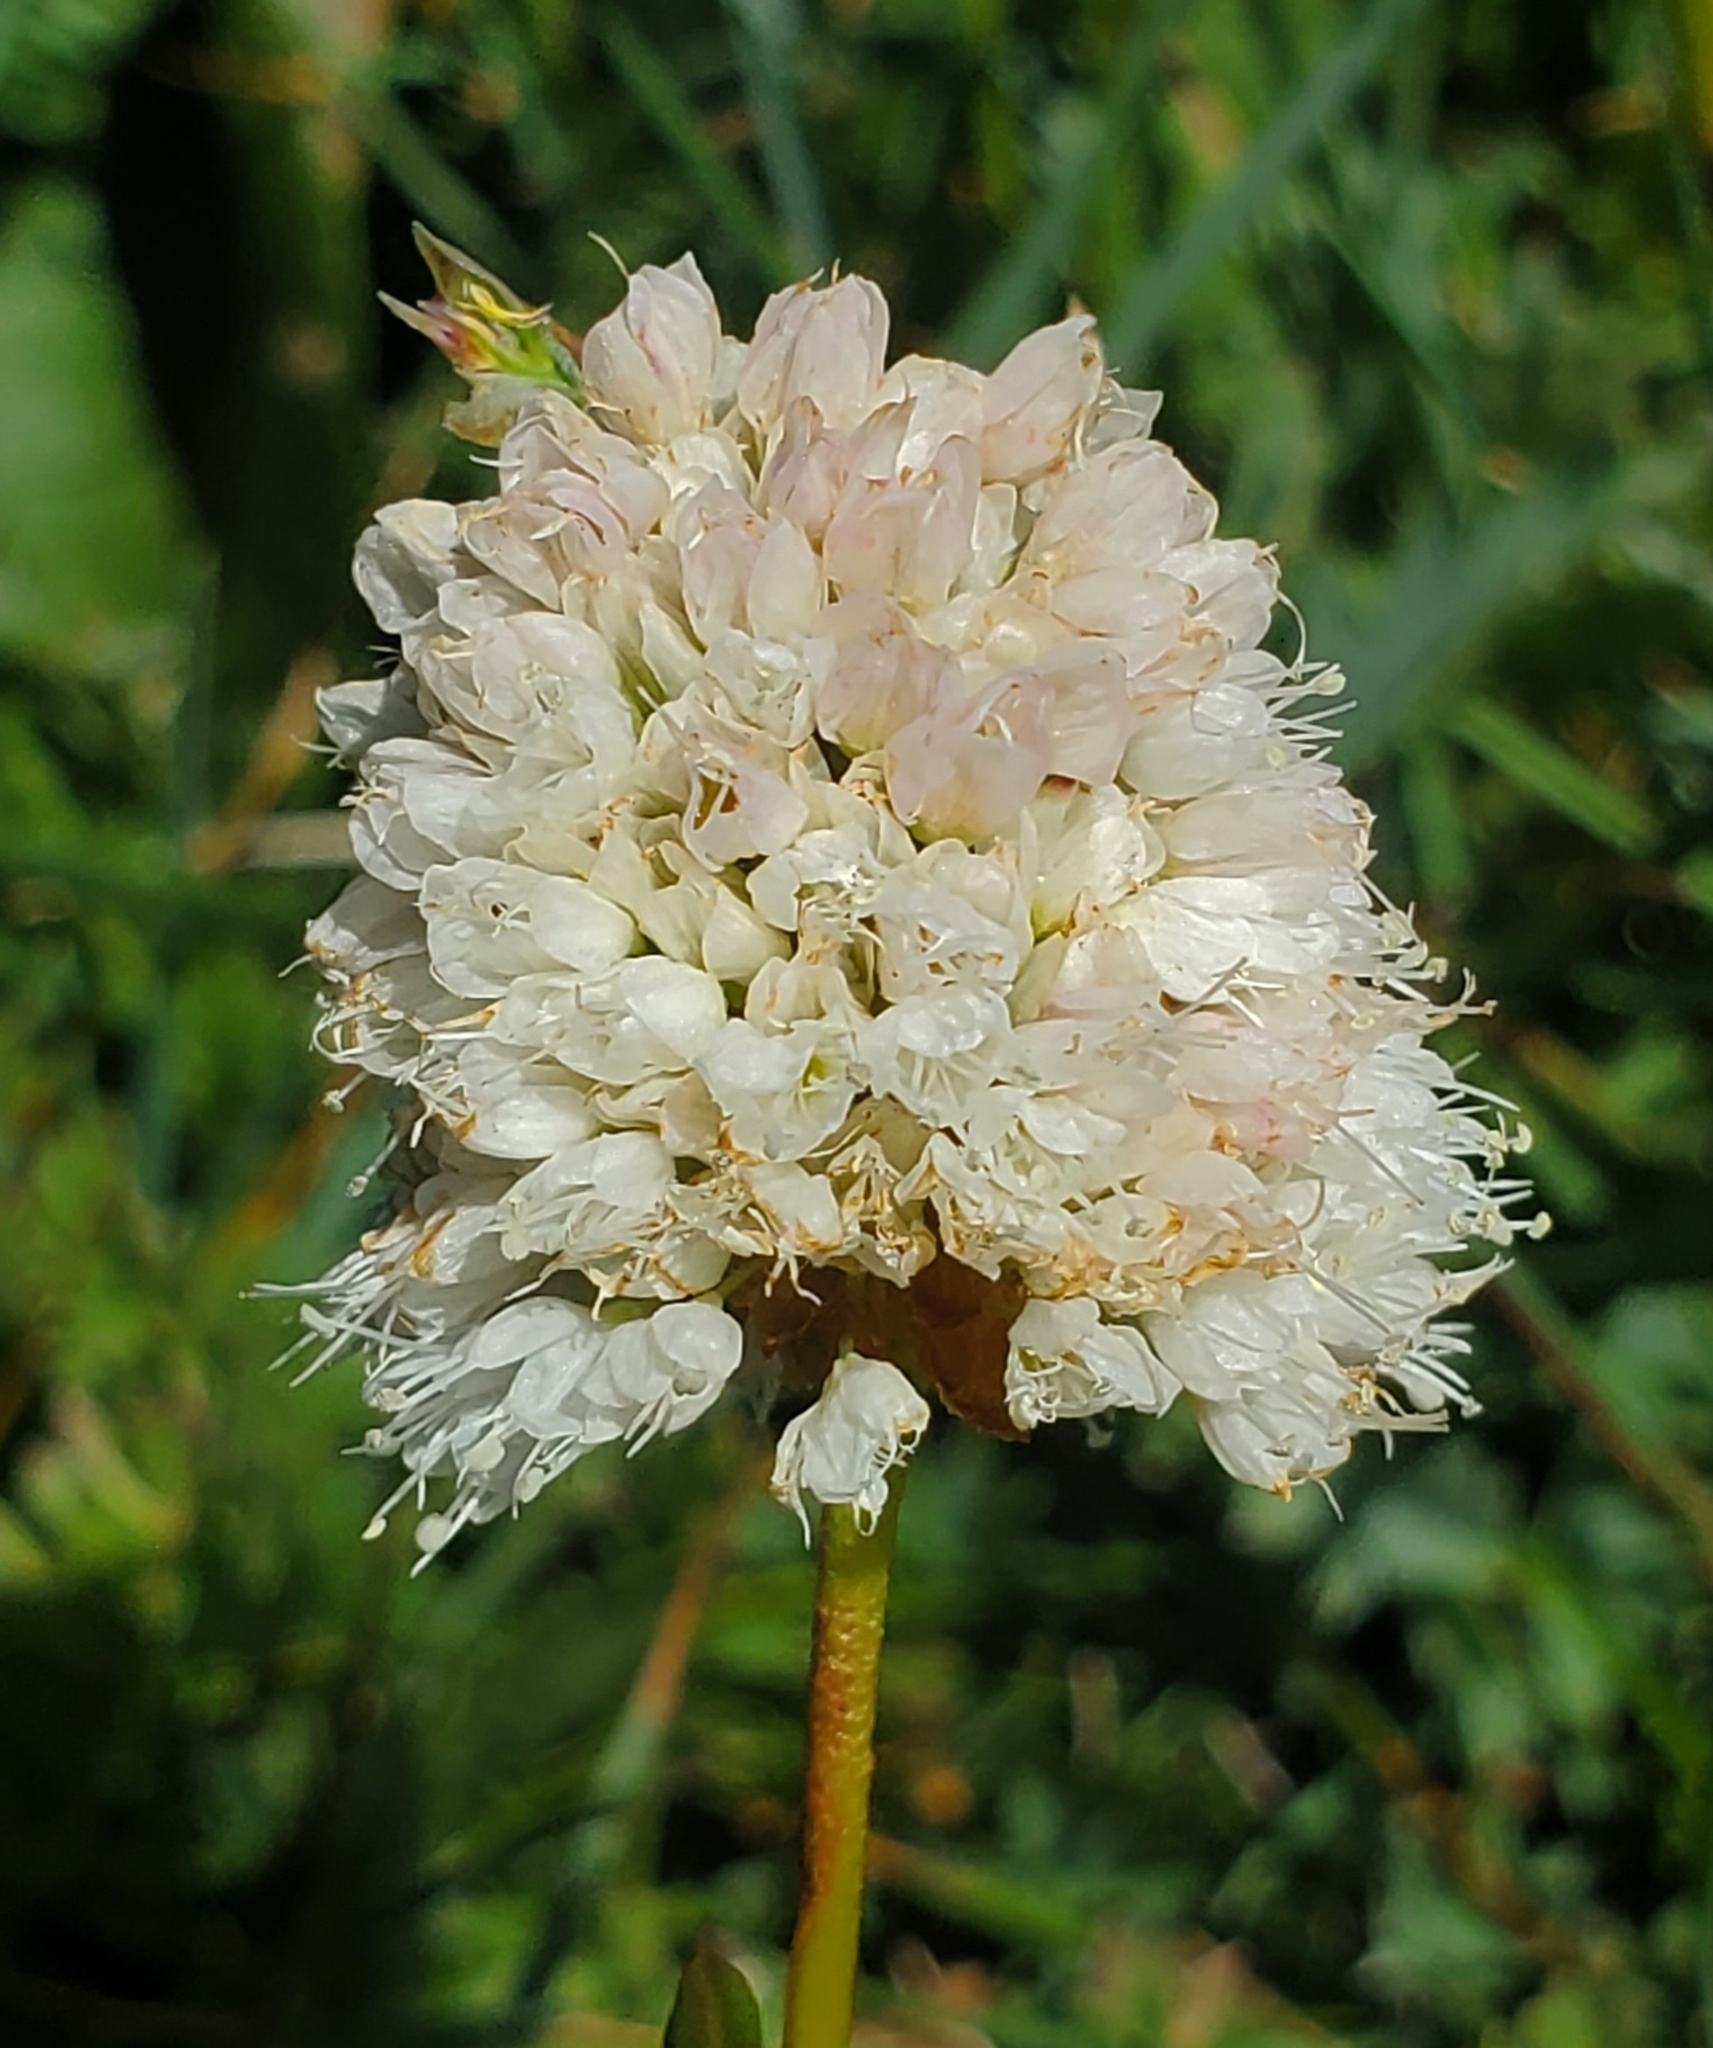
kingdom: Plantae
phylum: Tracheophyta
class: Magnoliopsida
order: Caryophyllales
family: Polygonaceae
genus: Bistorta
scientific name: Bistorta bistortoides
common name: American bistort
